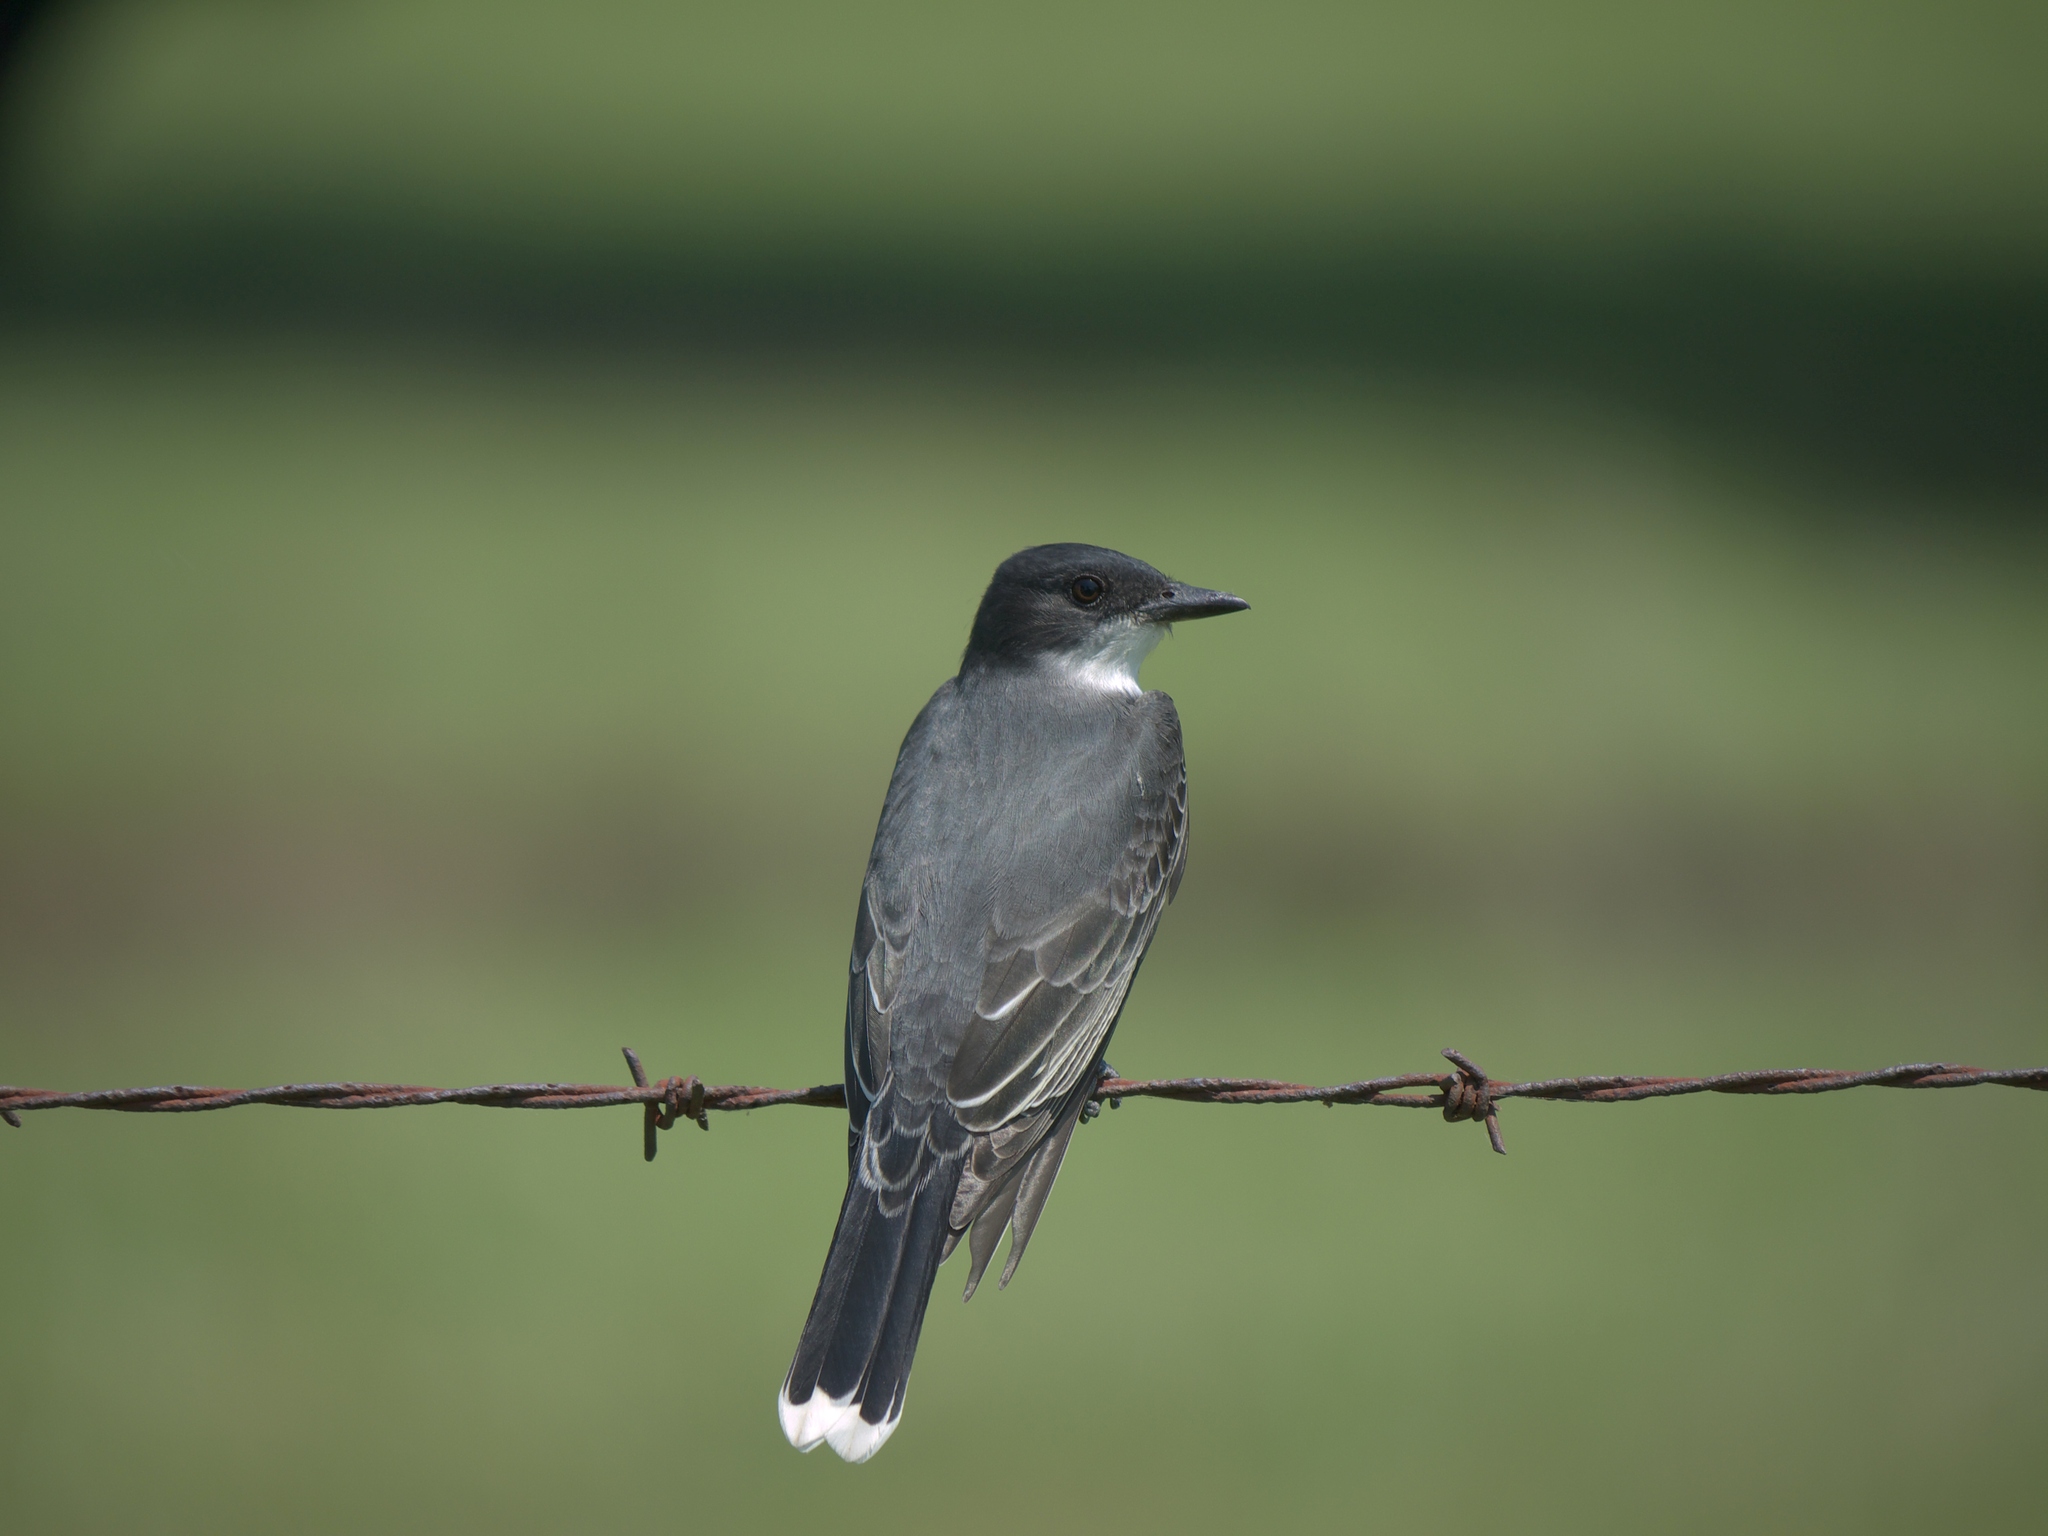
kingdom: Animalia
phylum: Chordata
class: Aves
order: Passeriformes
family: Tyrannidae
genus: Tyrannus
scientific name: Tyrannus tyrannus
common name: Eastern kingbird
